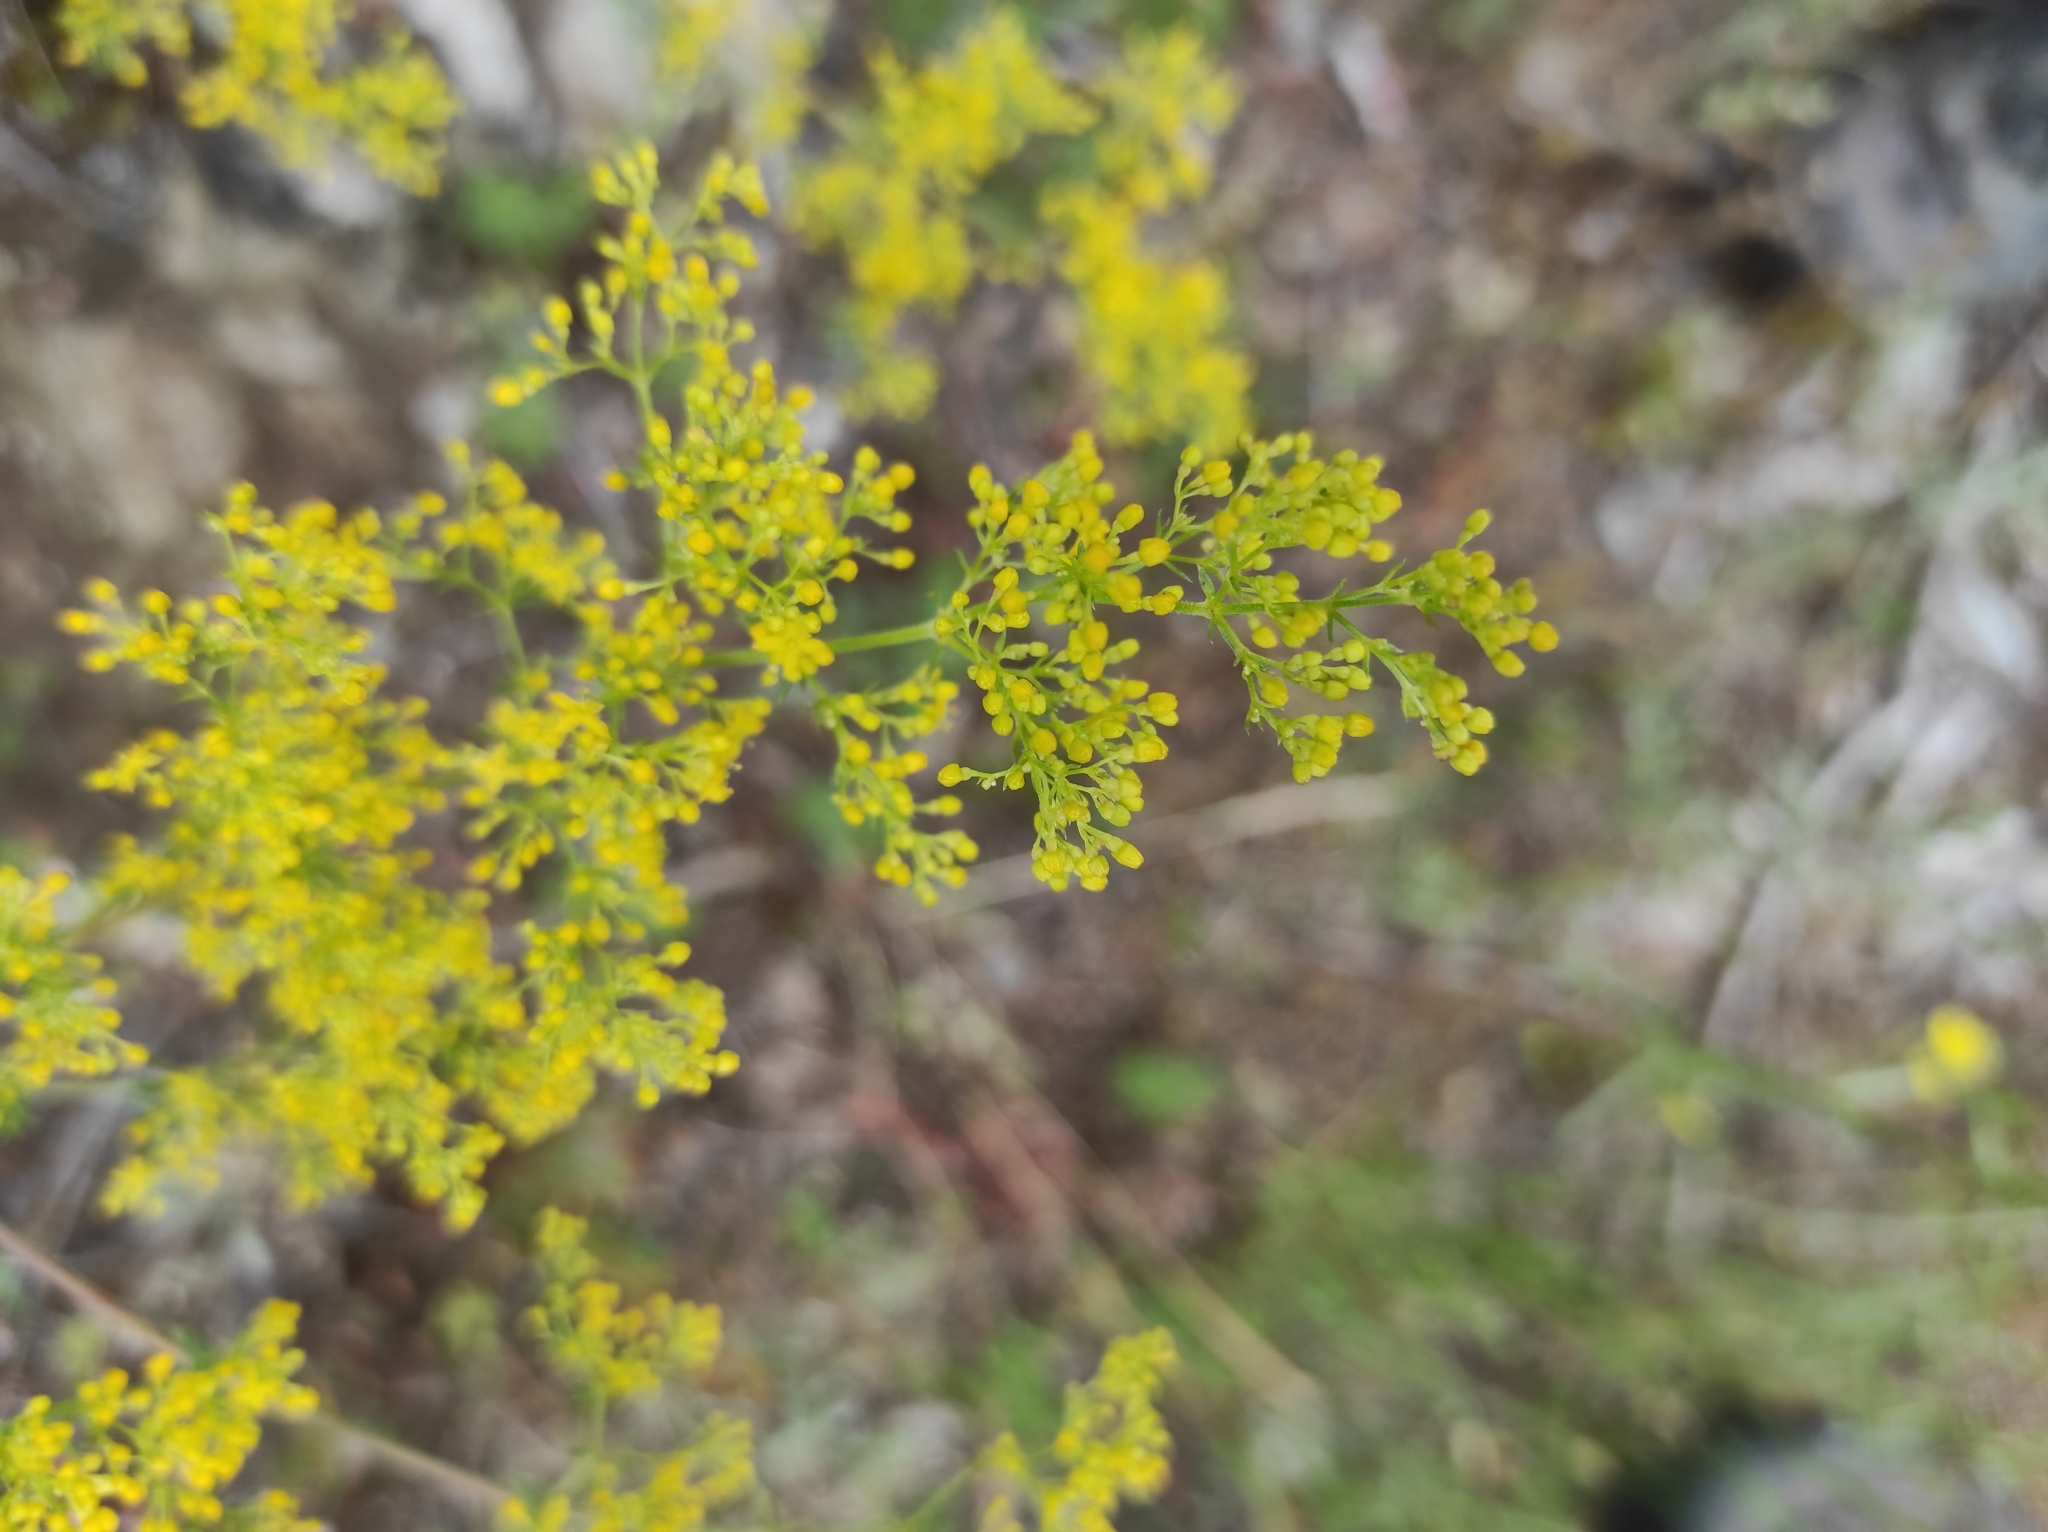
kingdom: Plantae
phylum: Tracheophyta
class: Magnoliopsida
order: Gentianales
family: Rubiaceae
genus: Galium
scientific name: Galium verum
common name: Lady's bedstraw
